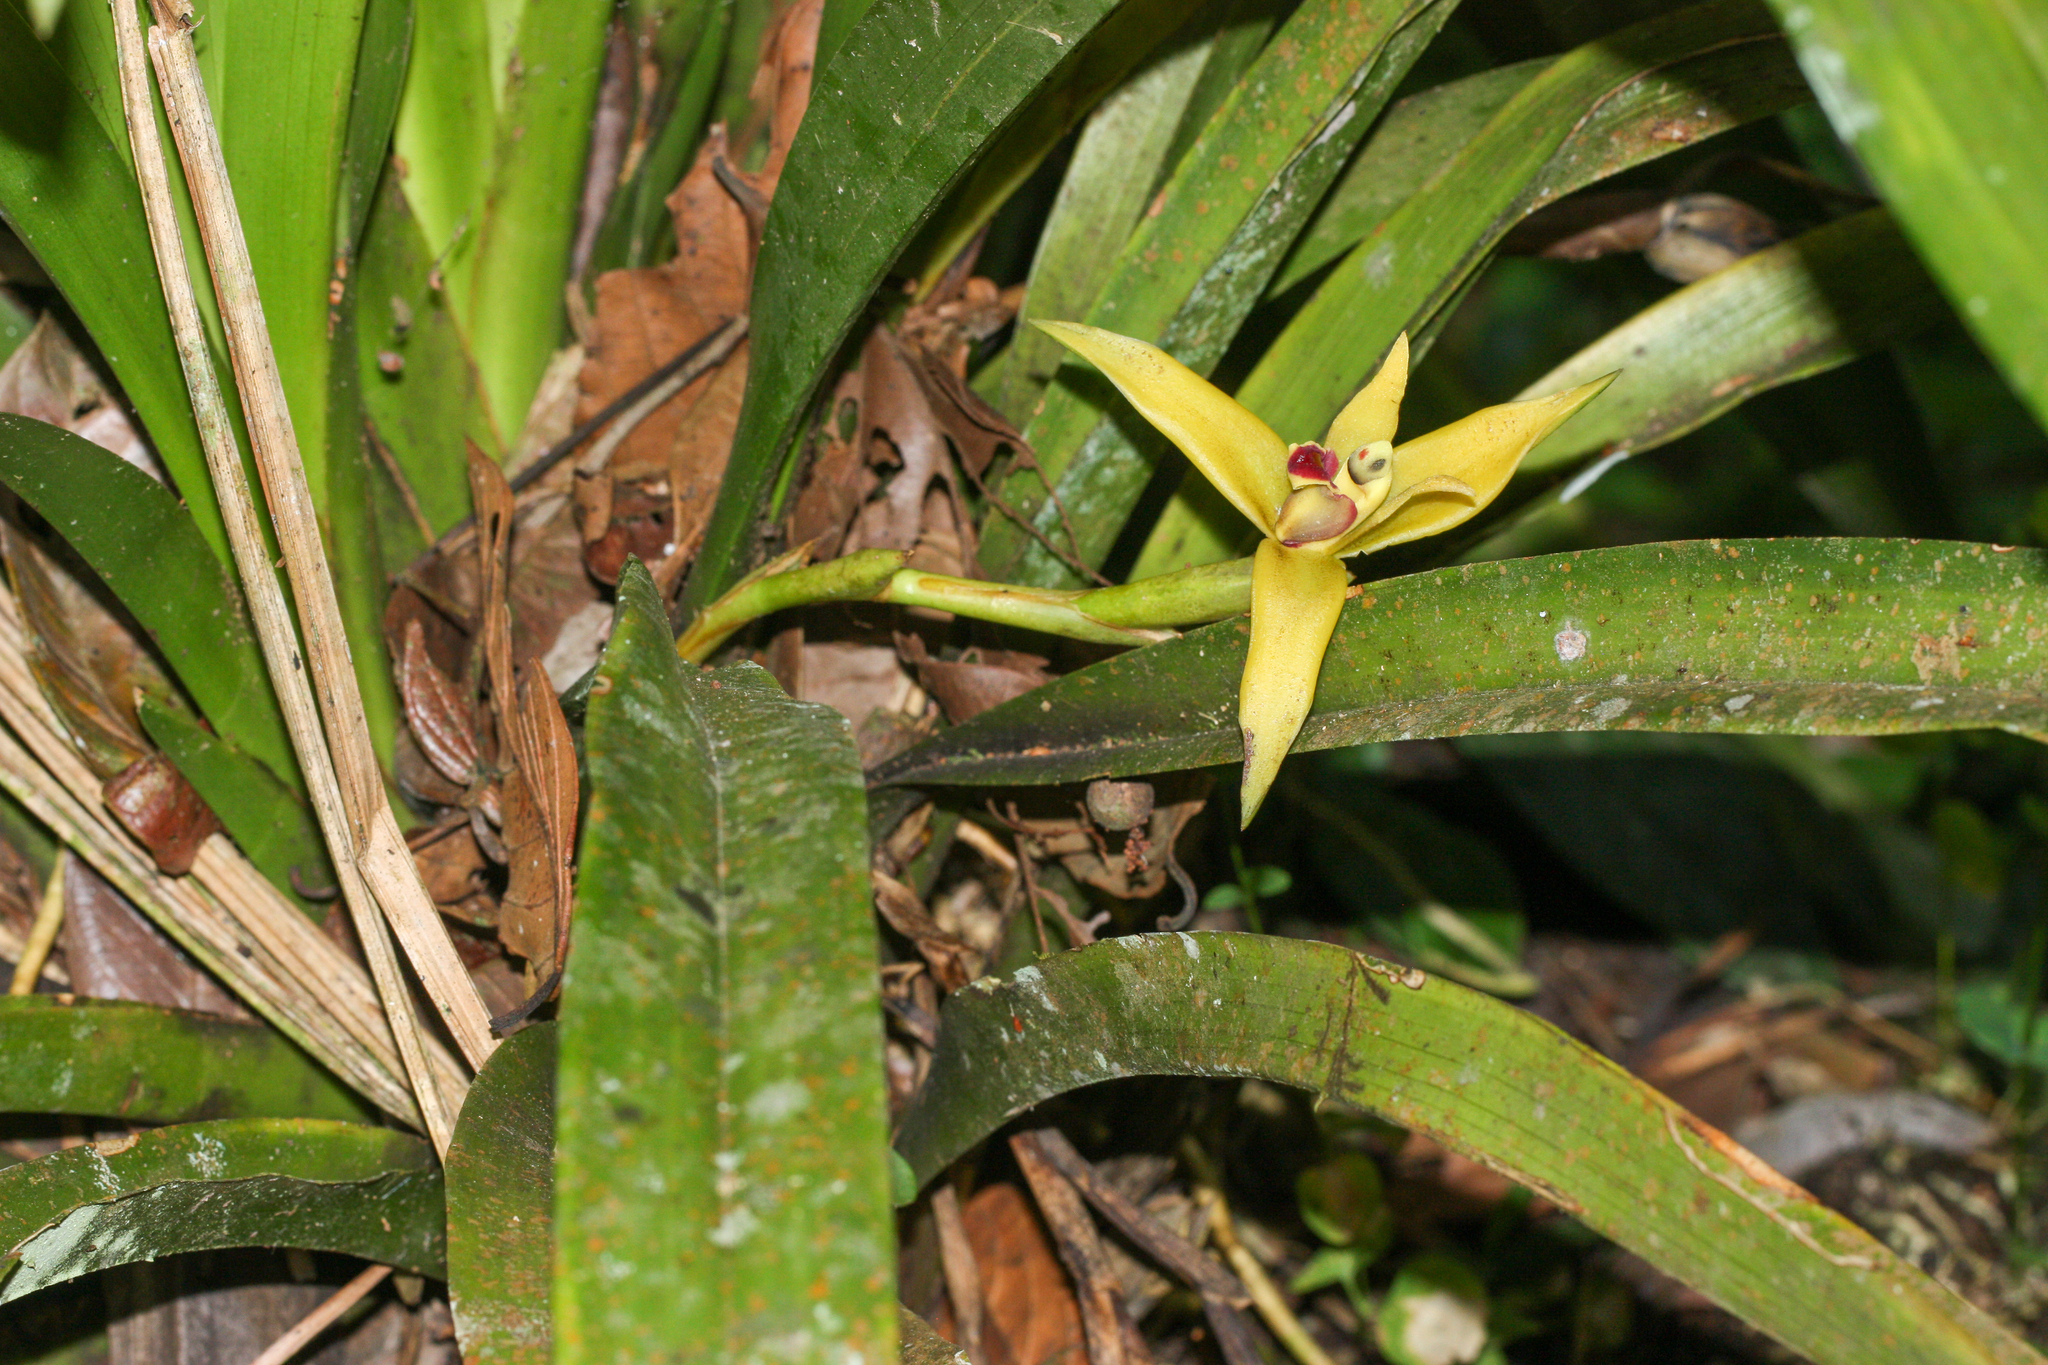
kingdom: Plantae
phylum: Tracheophyta
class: Liliopsida
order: Asparagales
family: Orchidaceae
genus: Maxillaria
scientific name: Maxillaria nasuta
